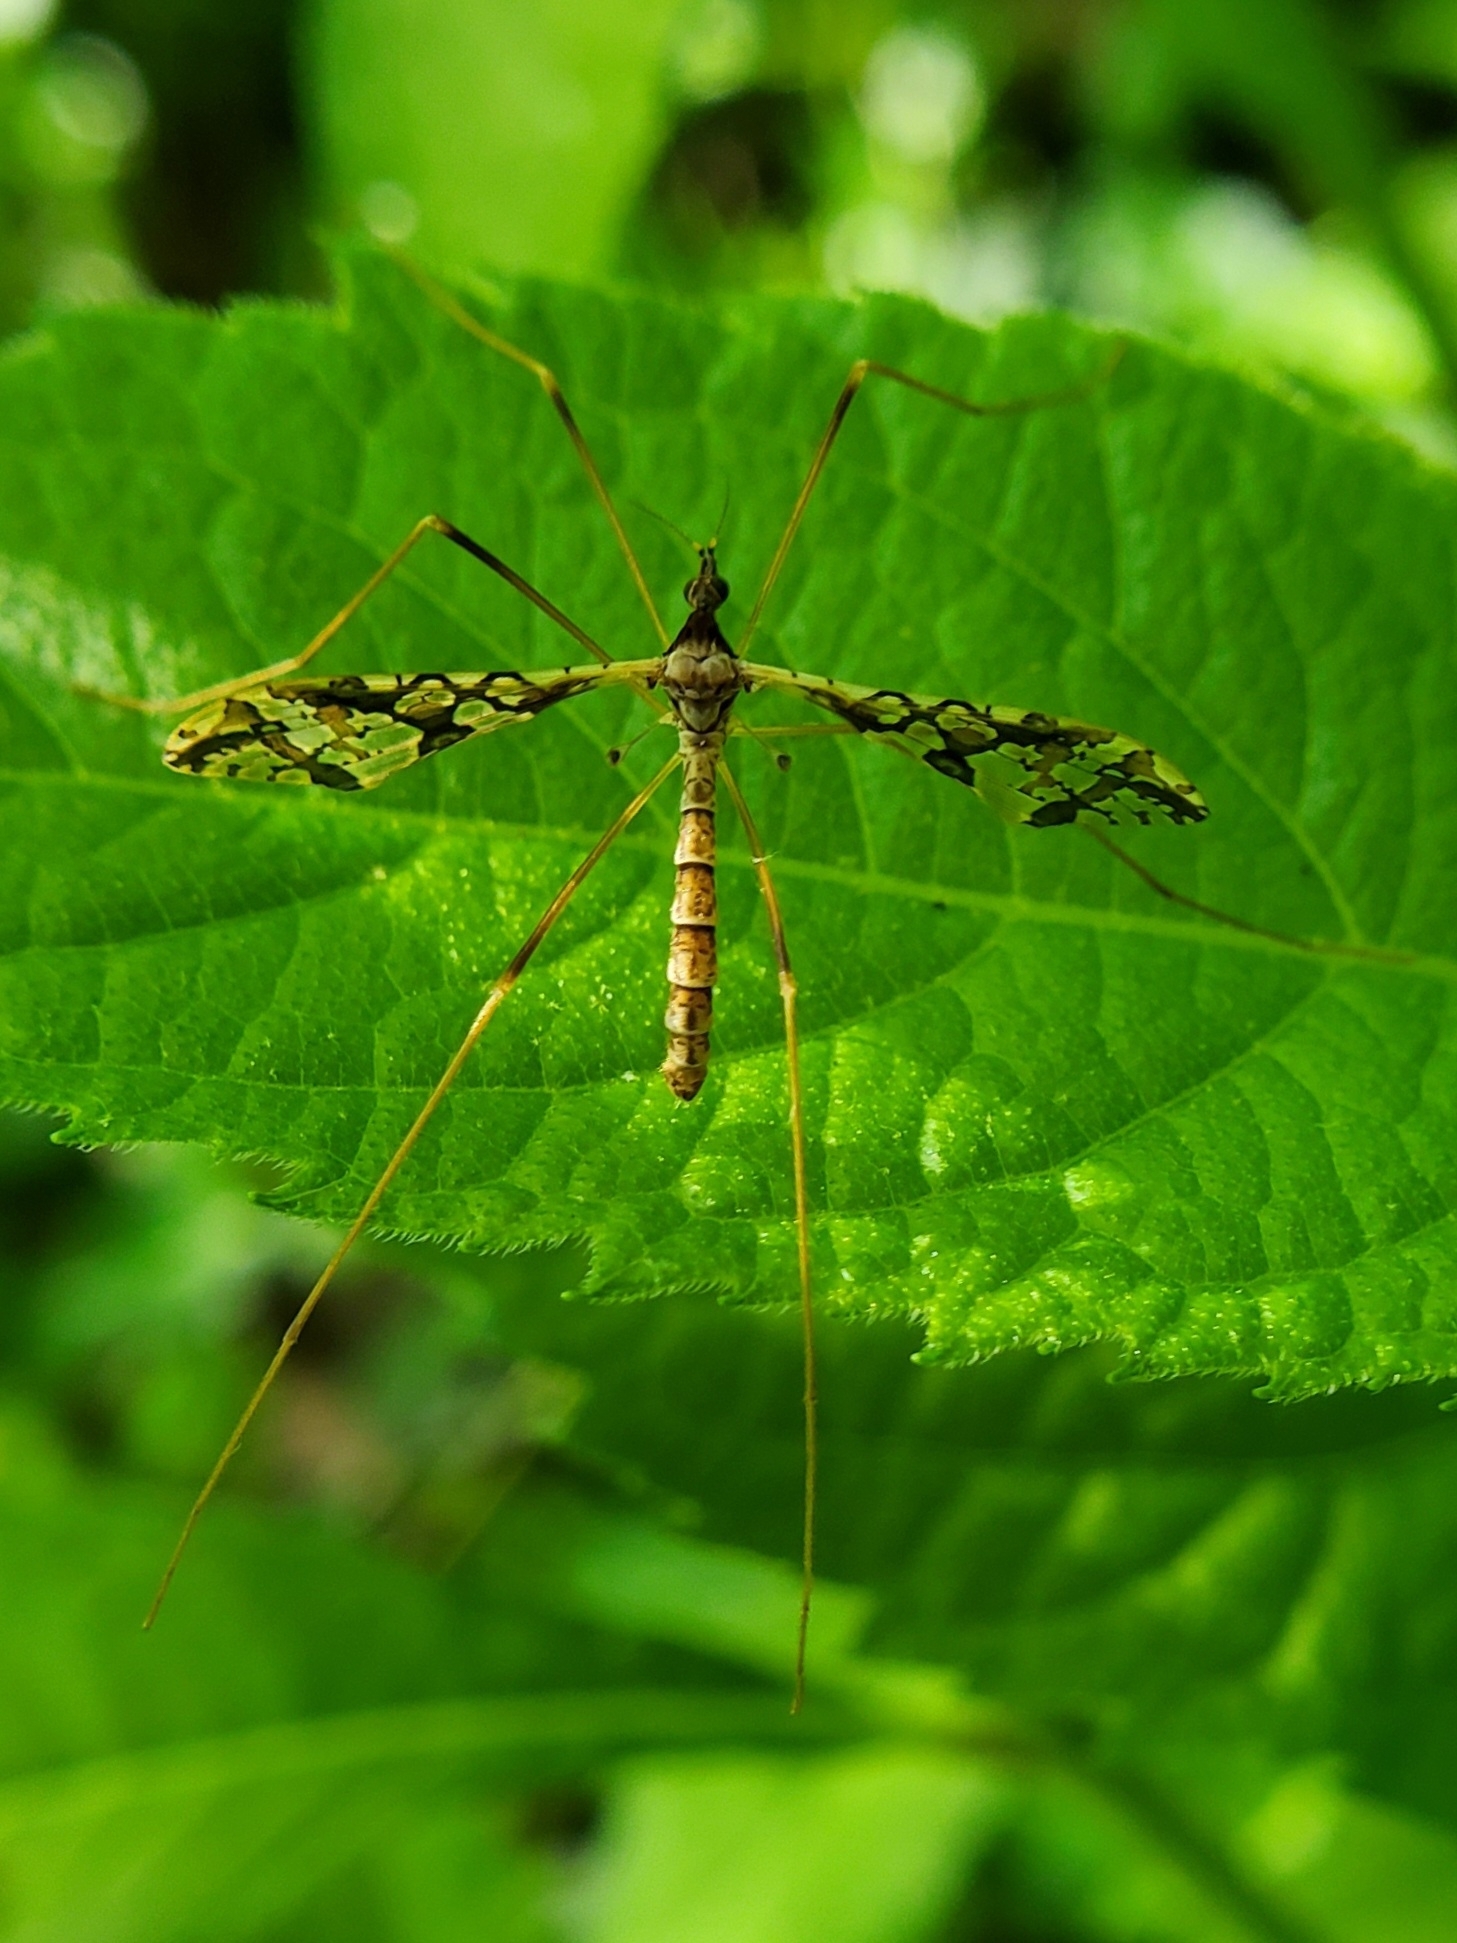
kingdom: Animalia
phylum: Arthropoda
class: Insecta
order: Diptera
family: Limoniidae
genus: Epiphragma
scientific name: Epiphragma solatrix
